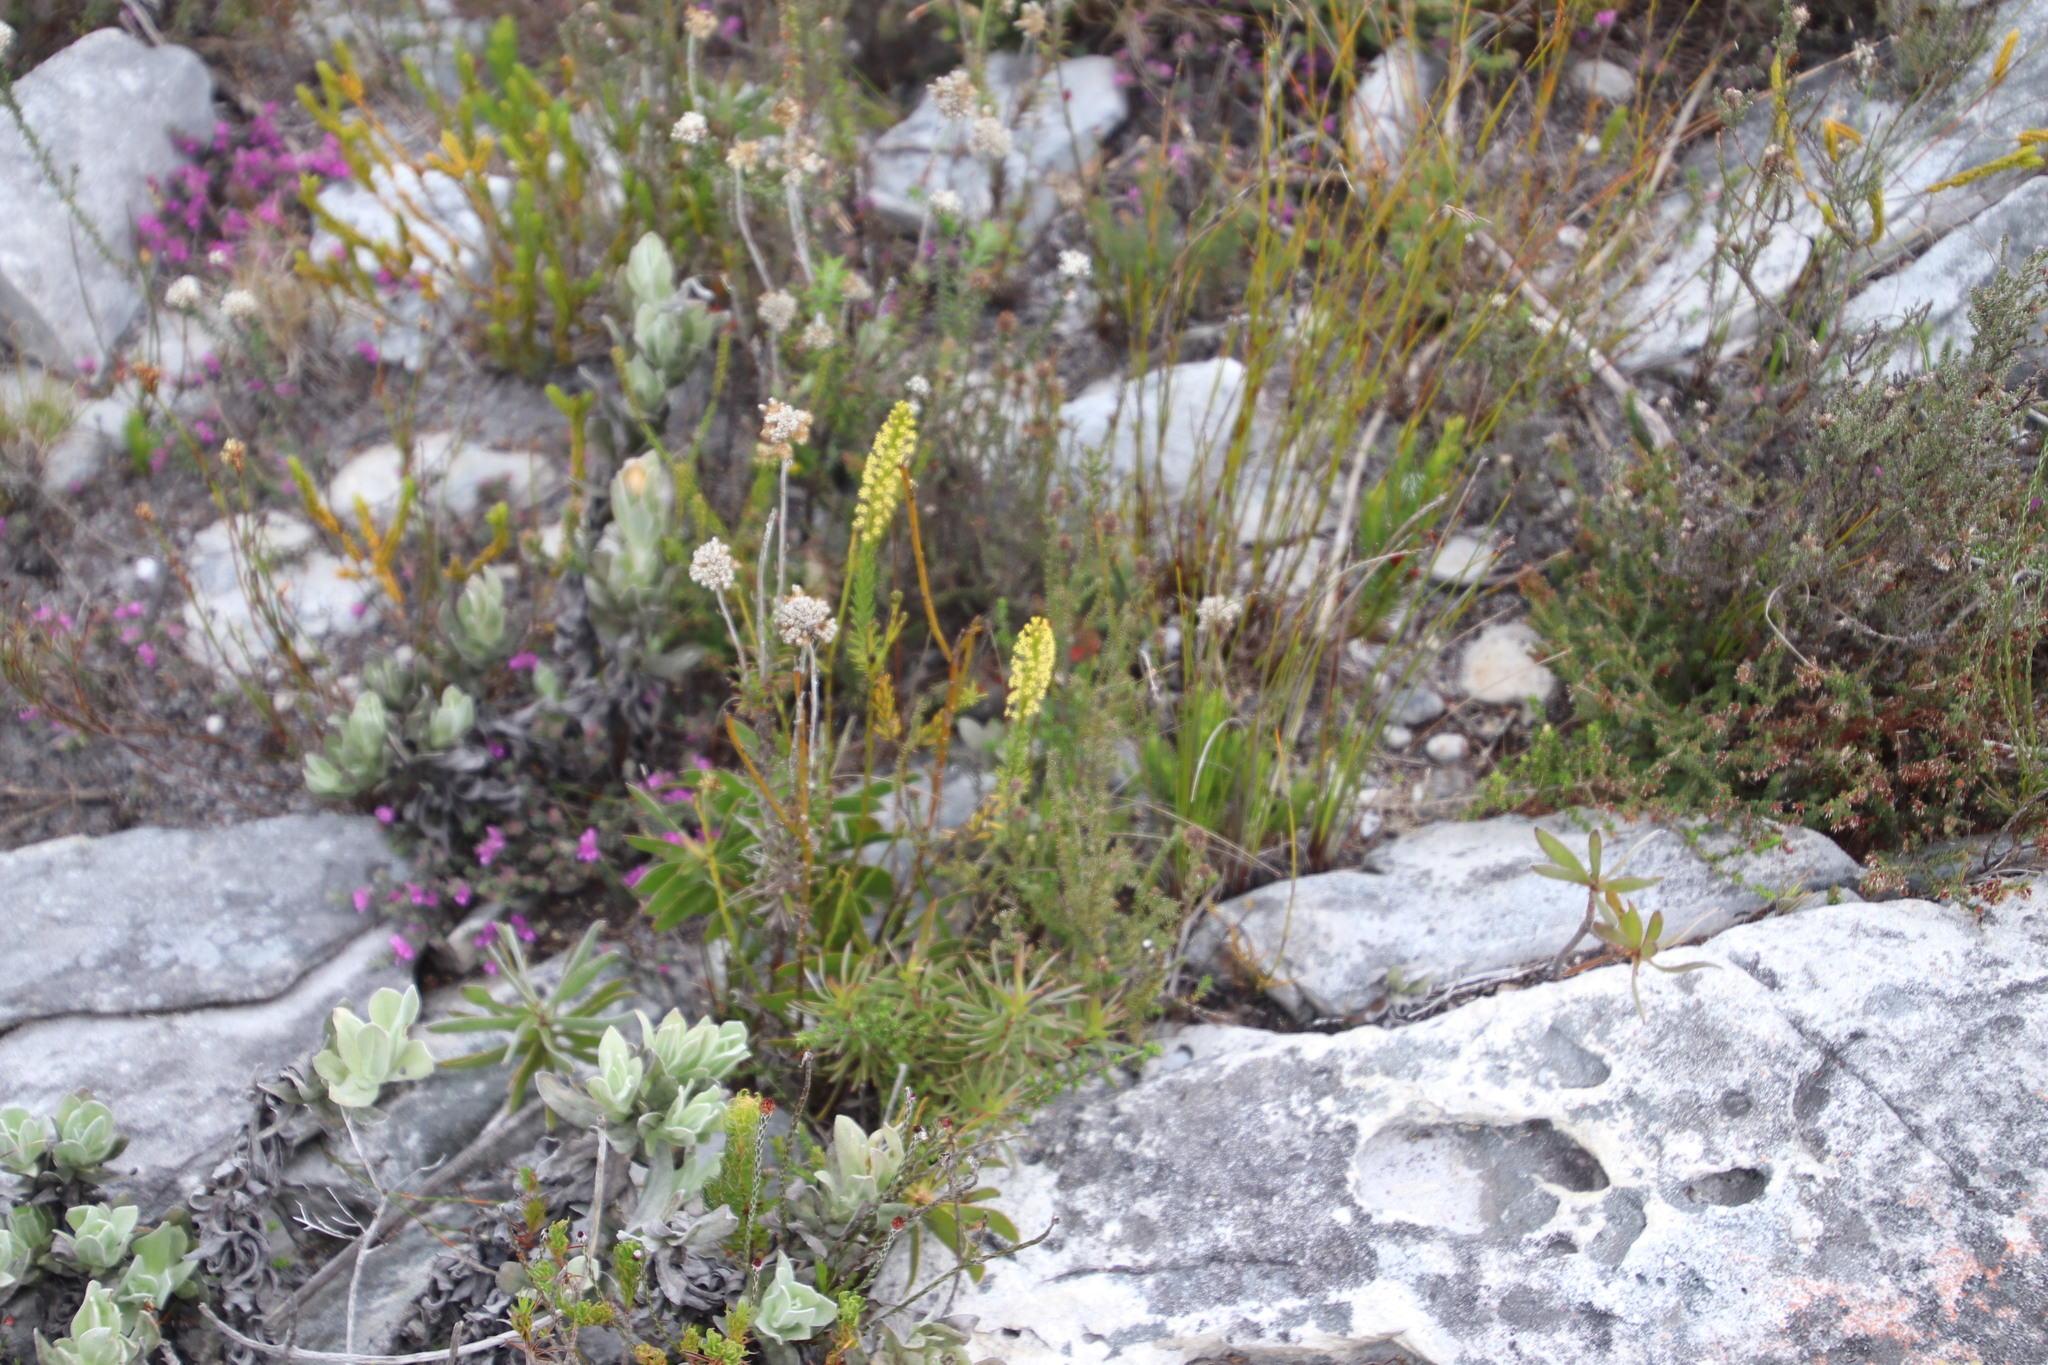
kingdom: Plantae
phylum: Tracheophyta
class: Magnoliopsida
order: Lamiales
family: Scrophulariaceae
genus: Microdon
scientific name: Microdon dubius
